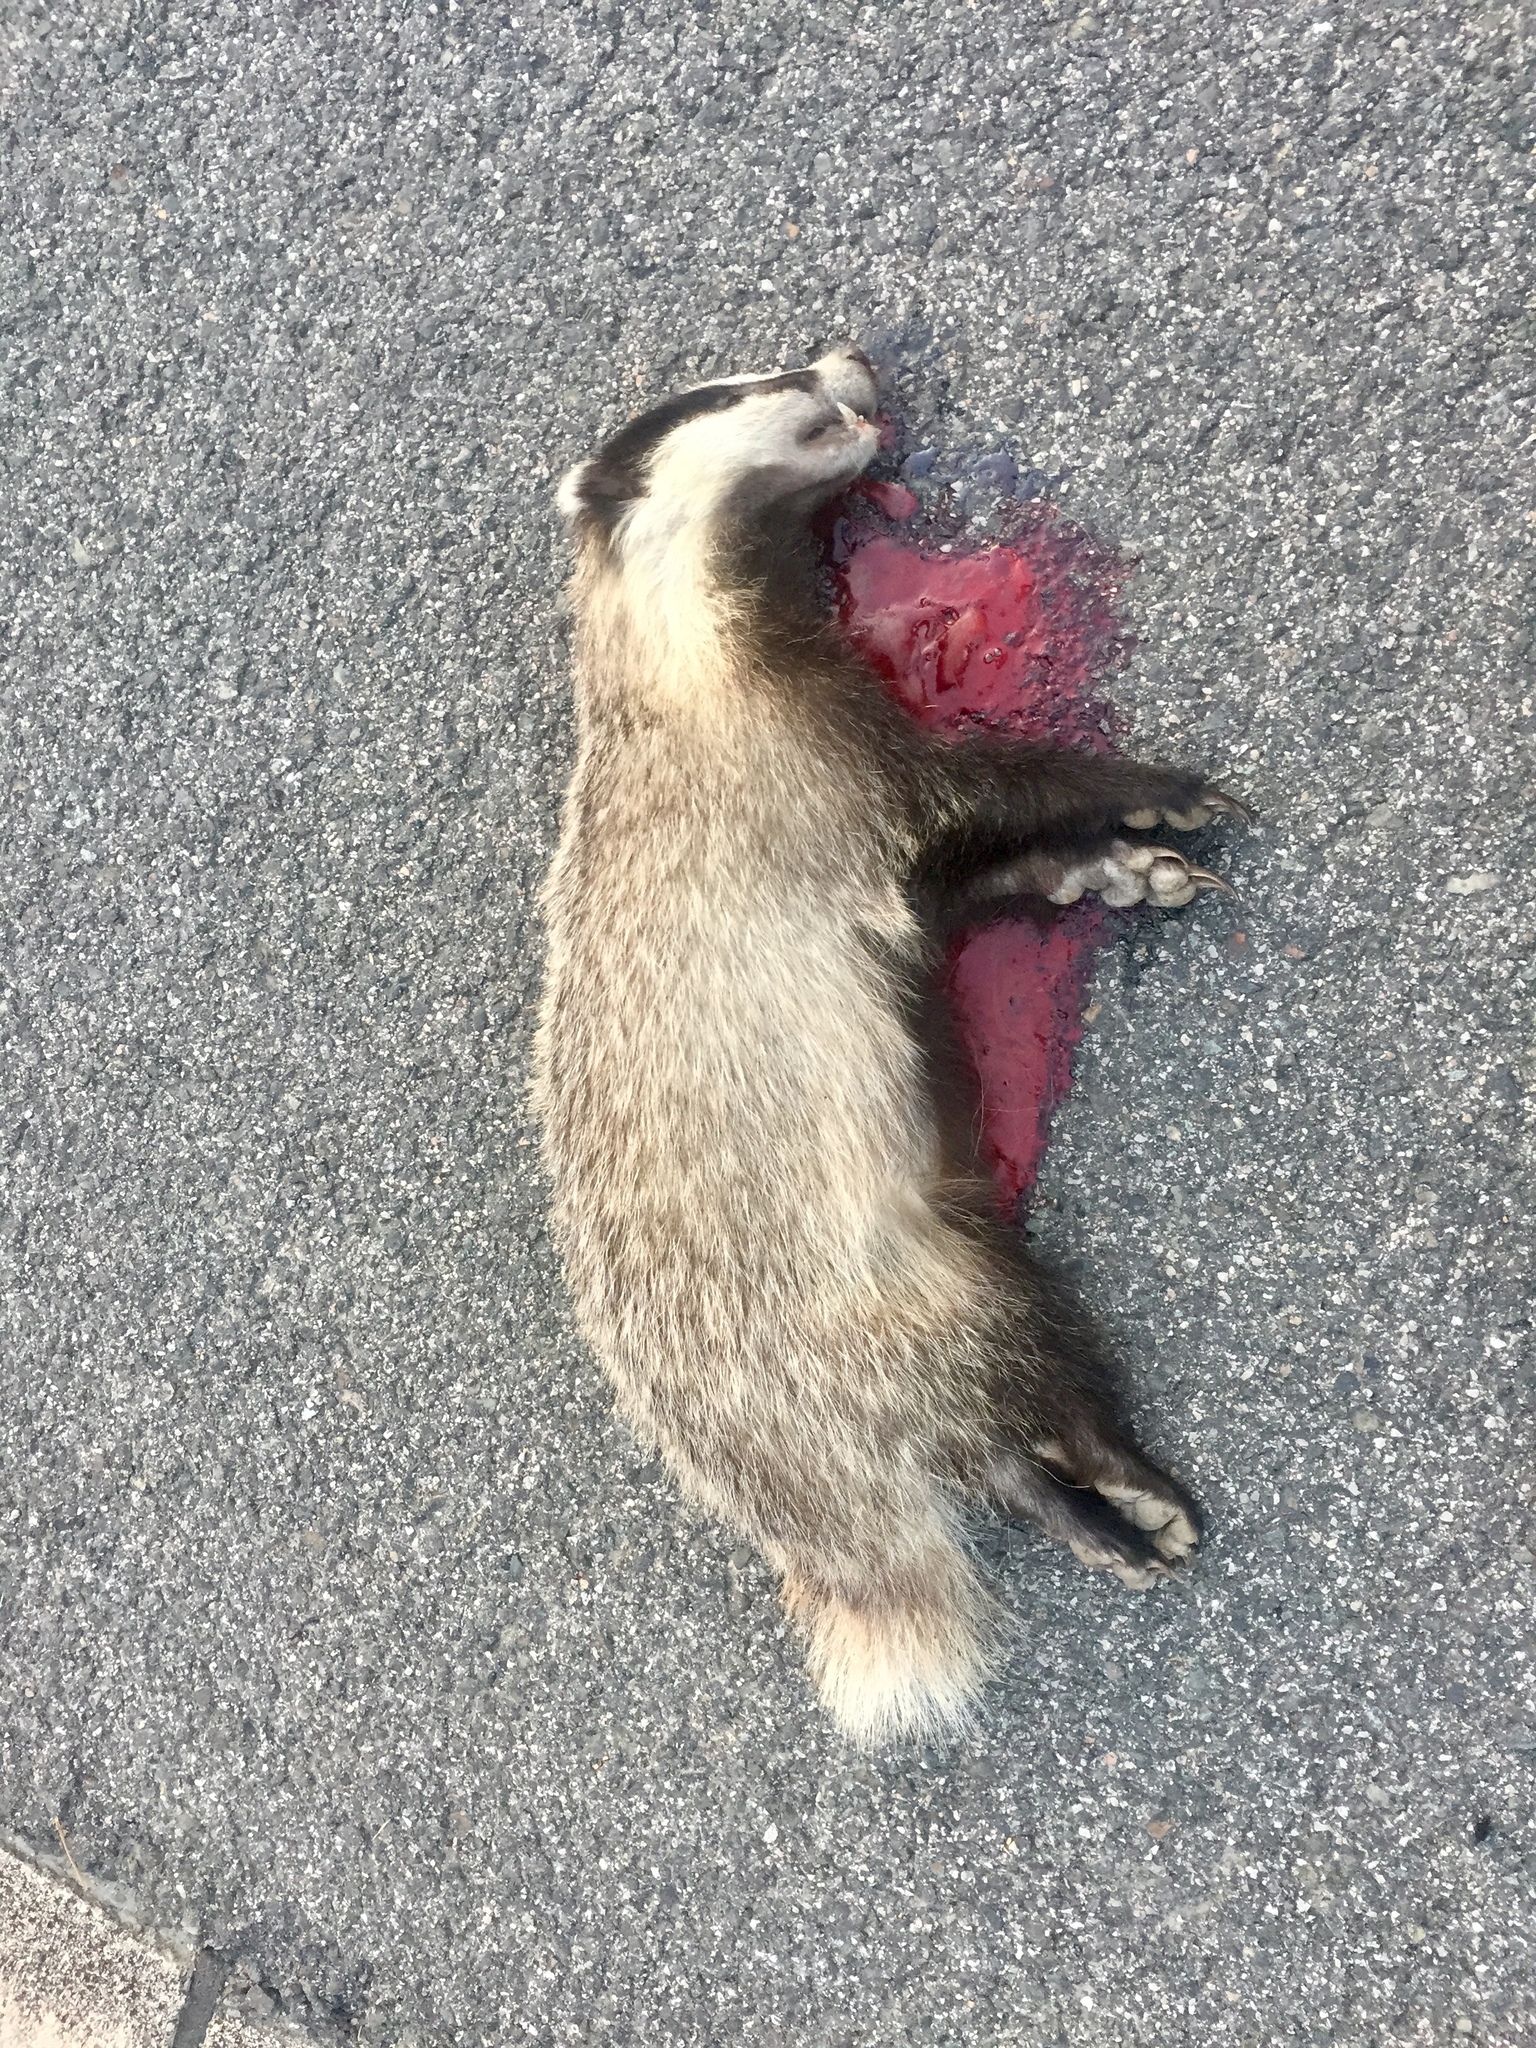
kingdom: Animalia
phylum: Chordata
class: Mammalia
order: Carnivora
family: Mustelidae
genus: Meles
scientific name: Meles meles
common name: Eurasian badger
